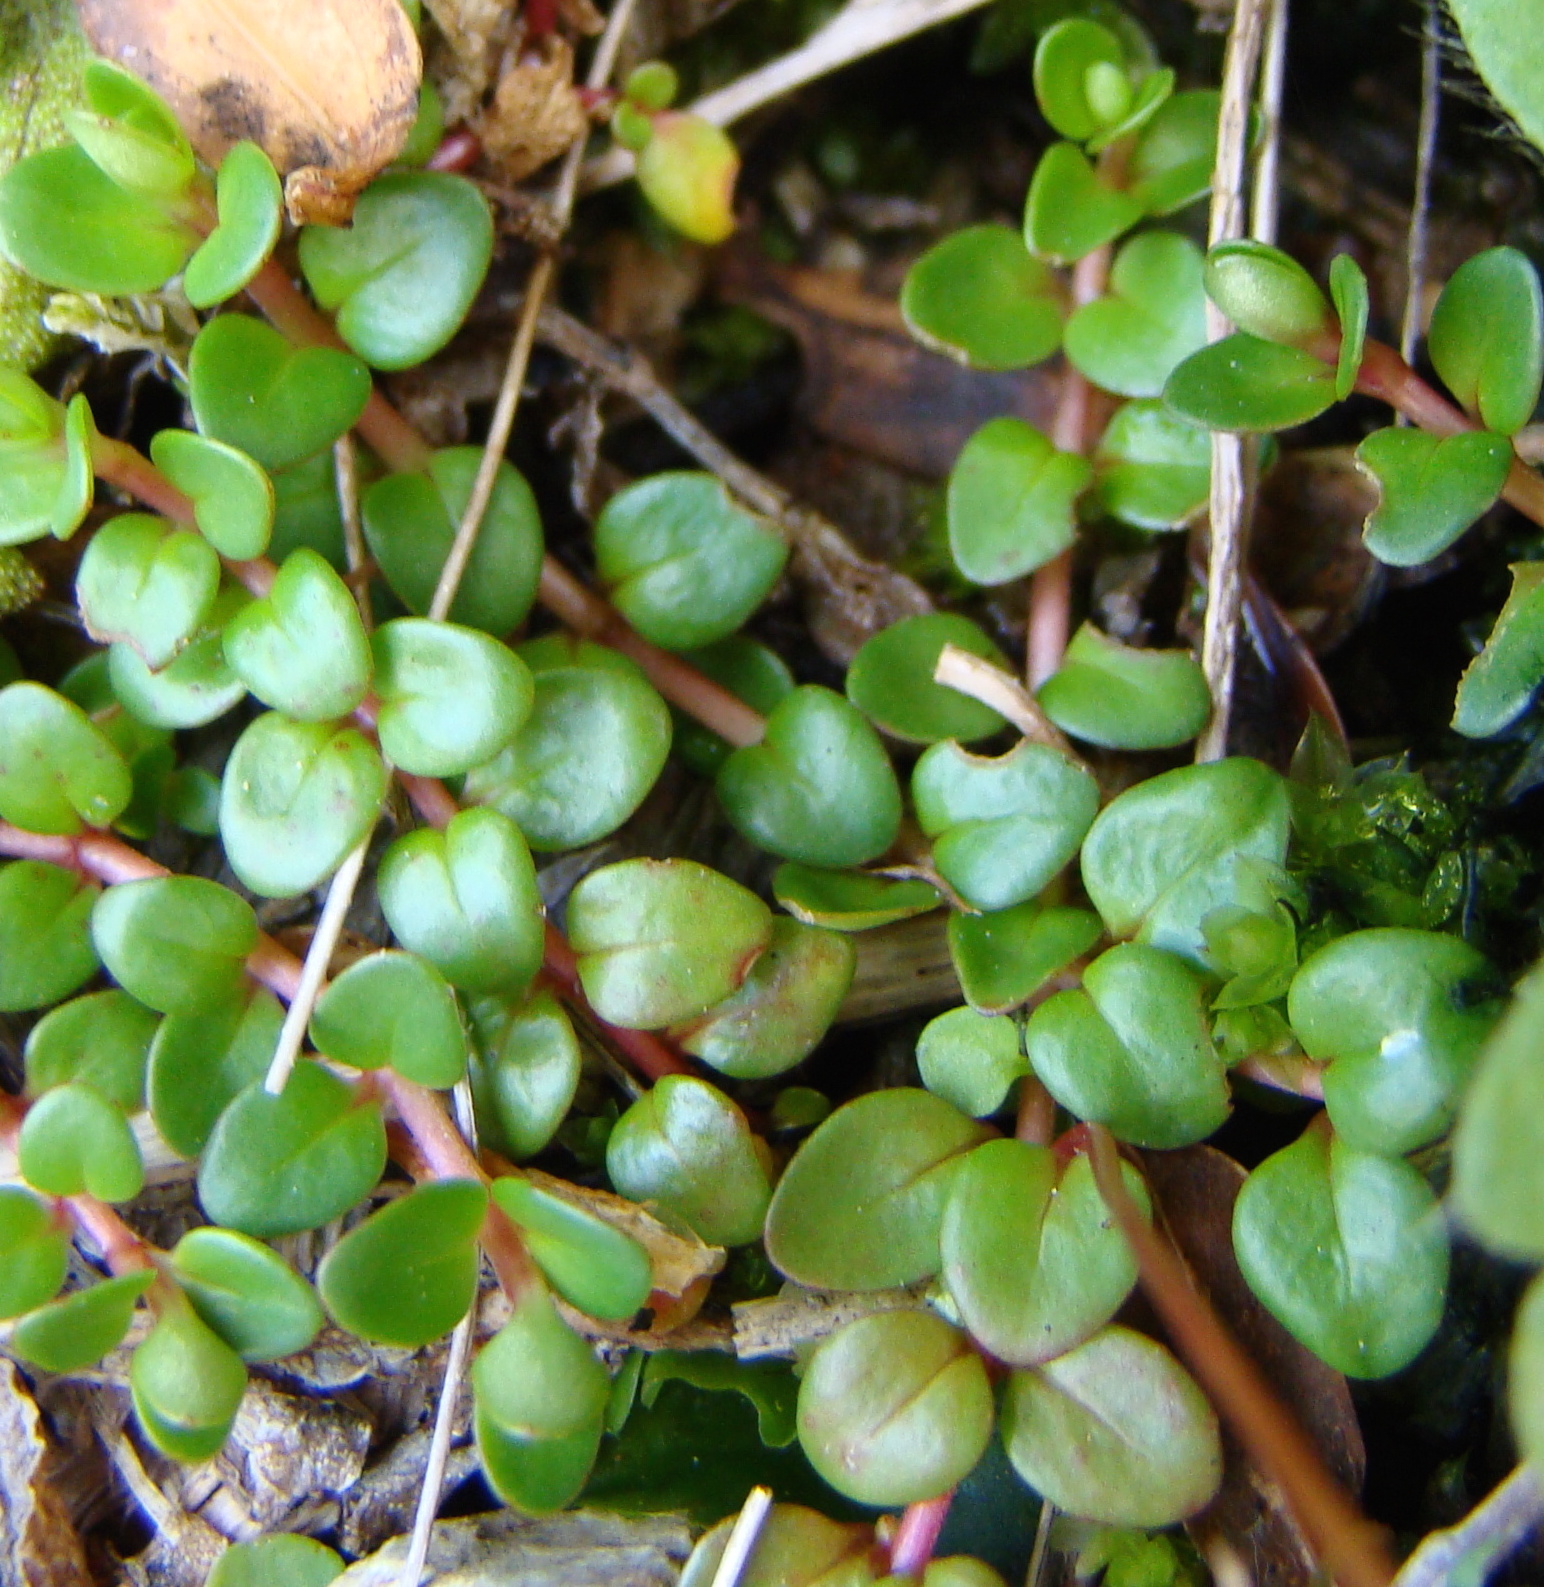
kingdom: Plantae
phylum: Tracheophyta
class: Magnoliopsida
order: Myrtales
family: Onagraceae
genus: Epilobium
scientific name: Epilobium brunnescens
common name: New zealand willowherb
